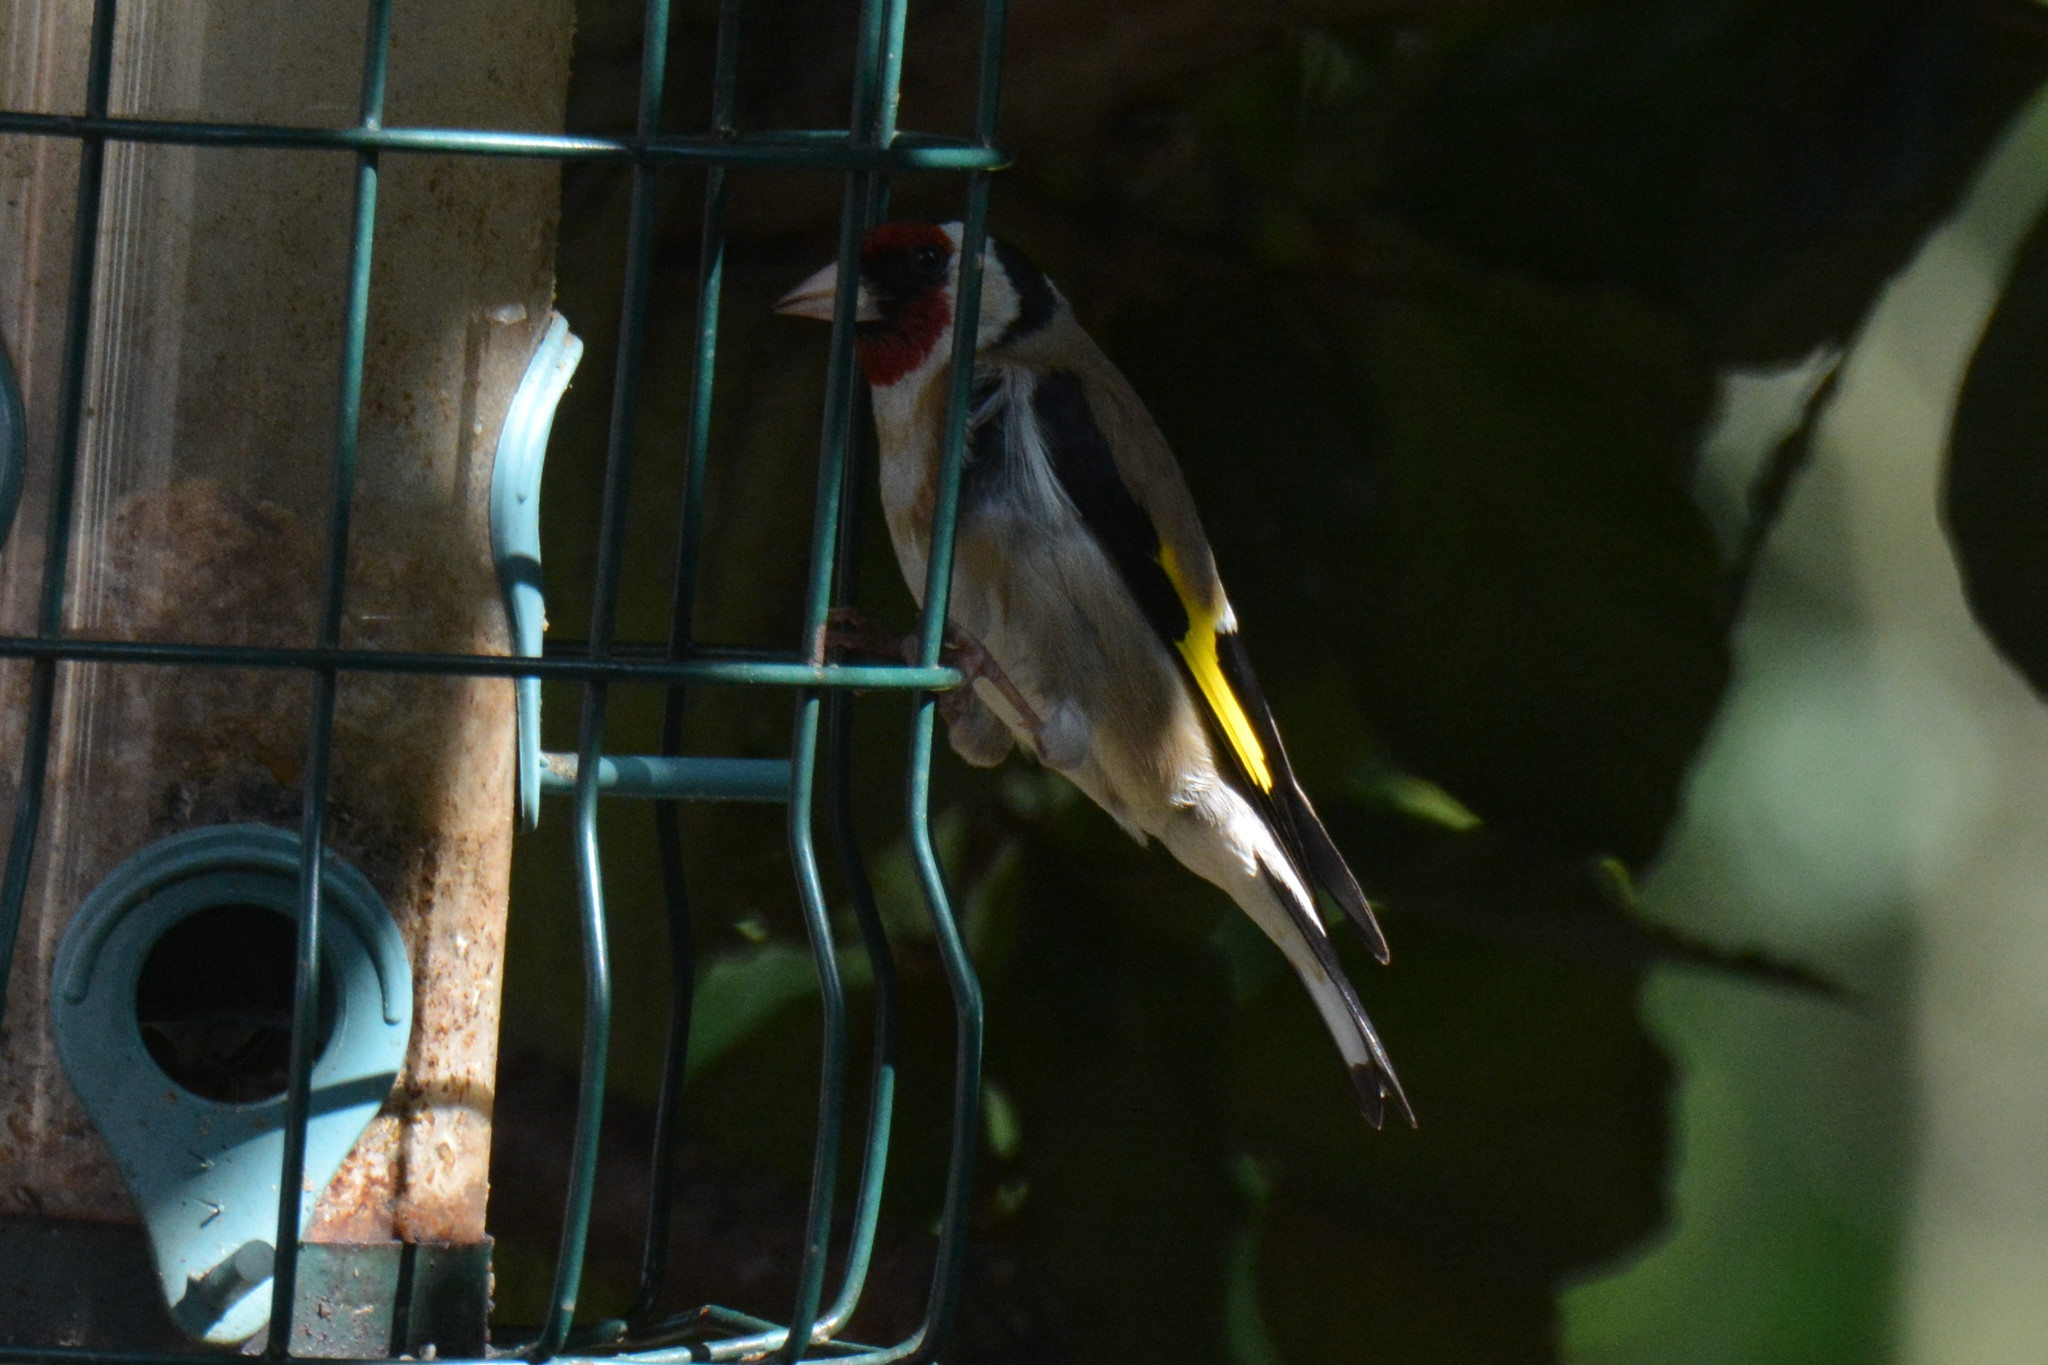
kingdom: Animalia
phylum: Chordata
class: Aves
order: Passeriformes
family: Fringillidae
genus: Carduelis
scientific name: Carduelis carduelis
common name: European goldfinch
